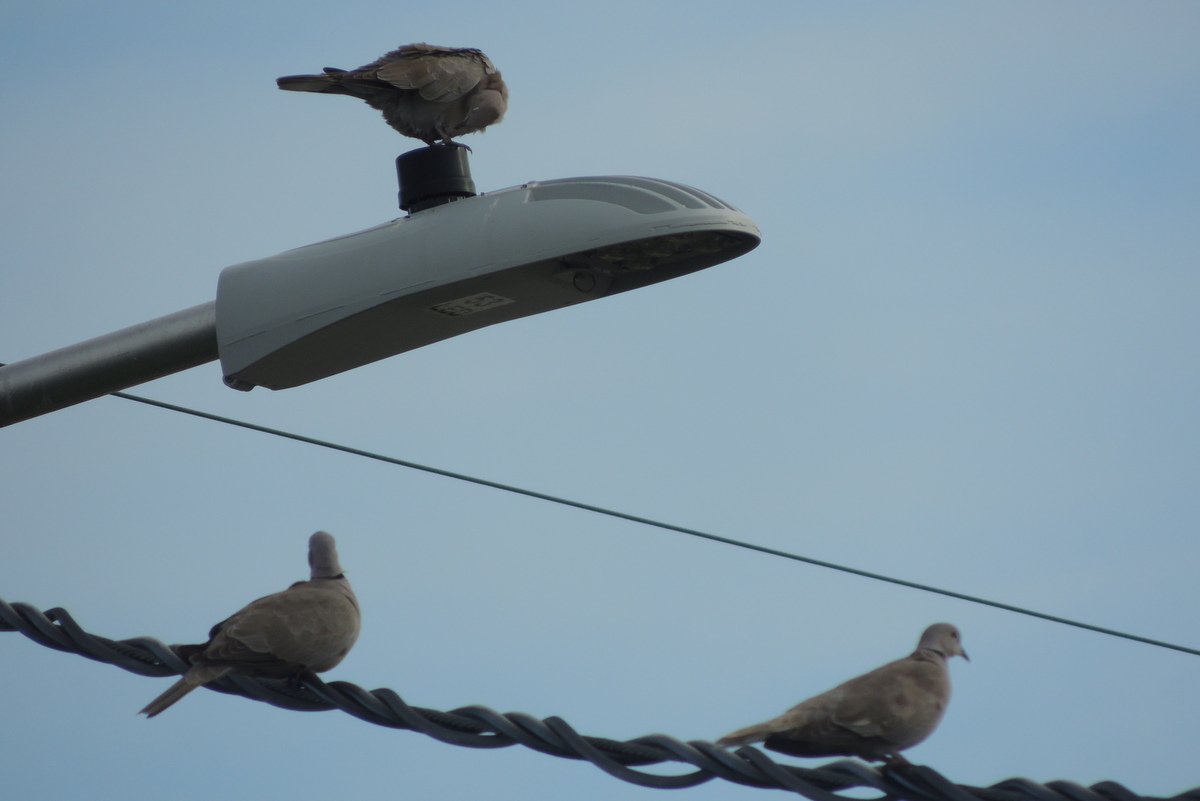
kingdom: Animalia
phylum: Chordata
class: Aves
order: Columbiformes
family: Columbidae
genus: Streptopelia
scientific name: Streptopelia decaocto
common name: Eurasian collared dove
